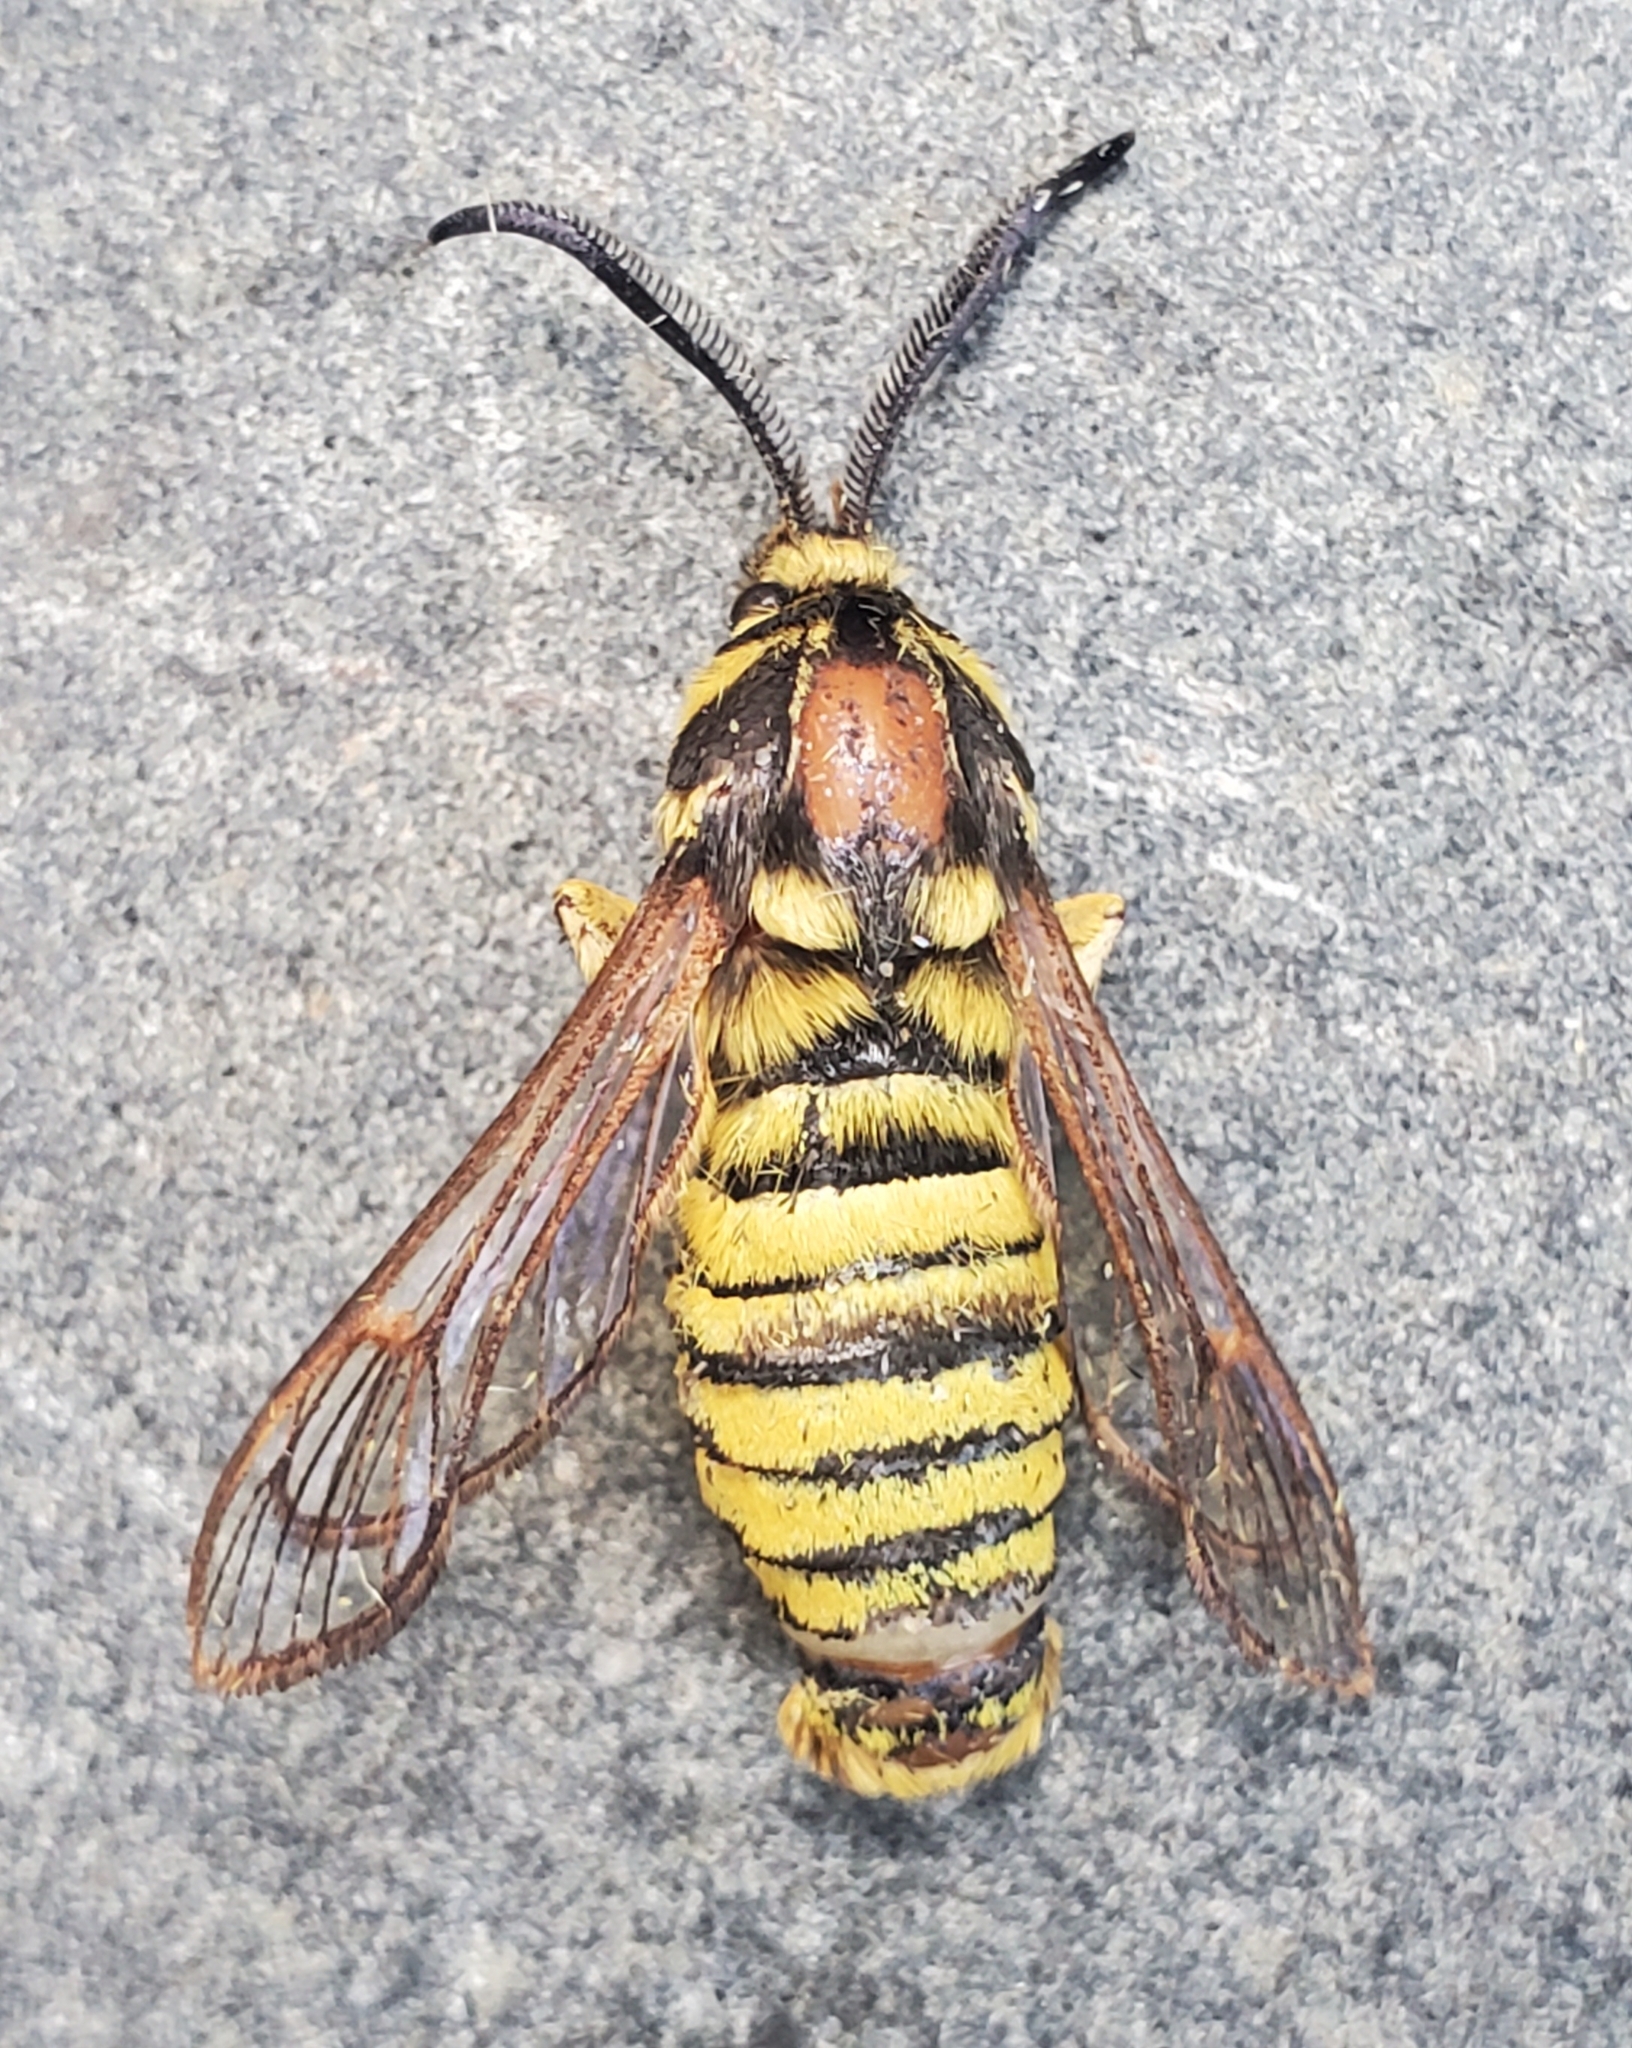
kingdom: Animalia
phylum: Arthropoda
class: Insecta
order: Lepidoptera
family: Sesiidae
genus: Sesia
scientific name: Sesia tibiale
